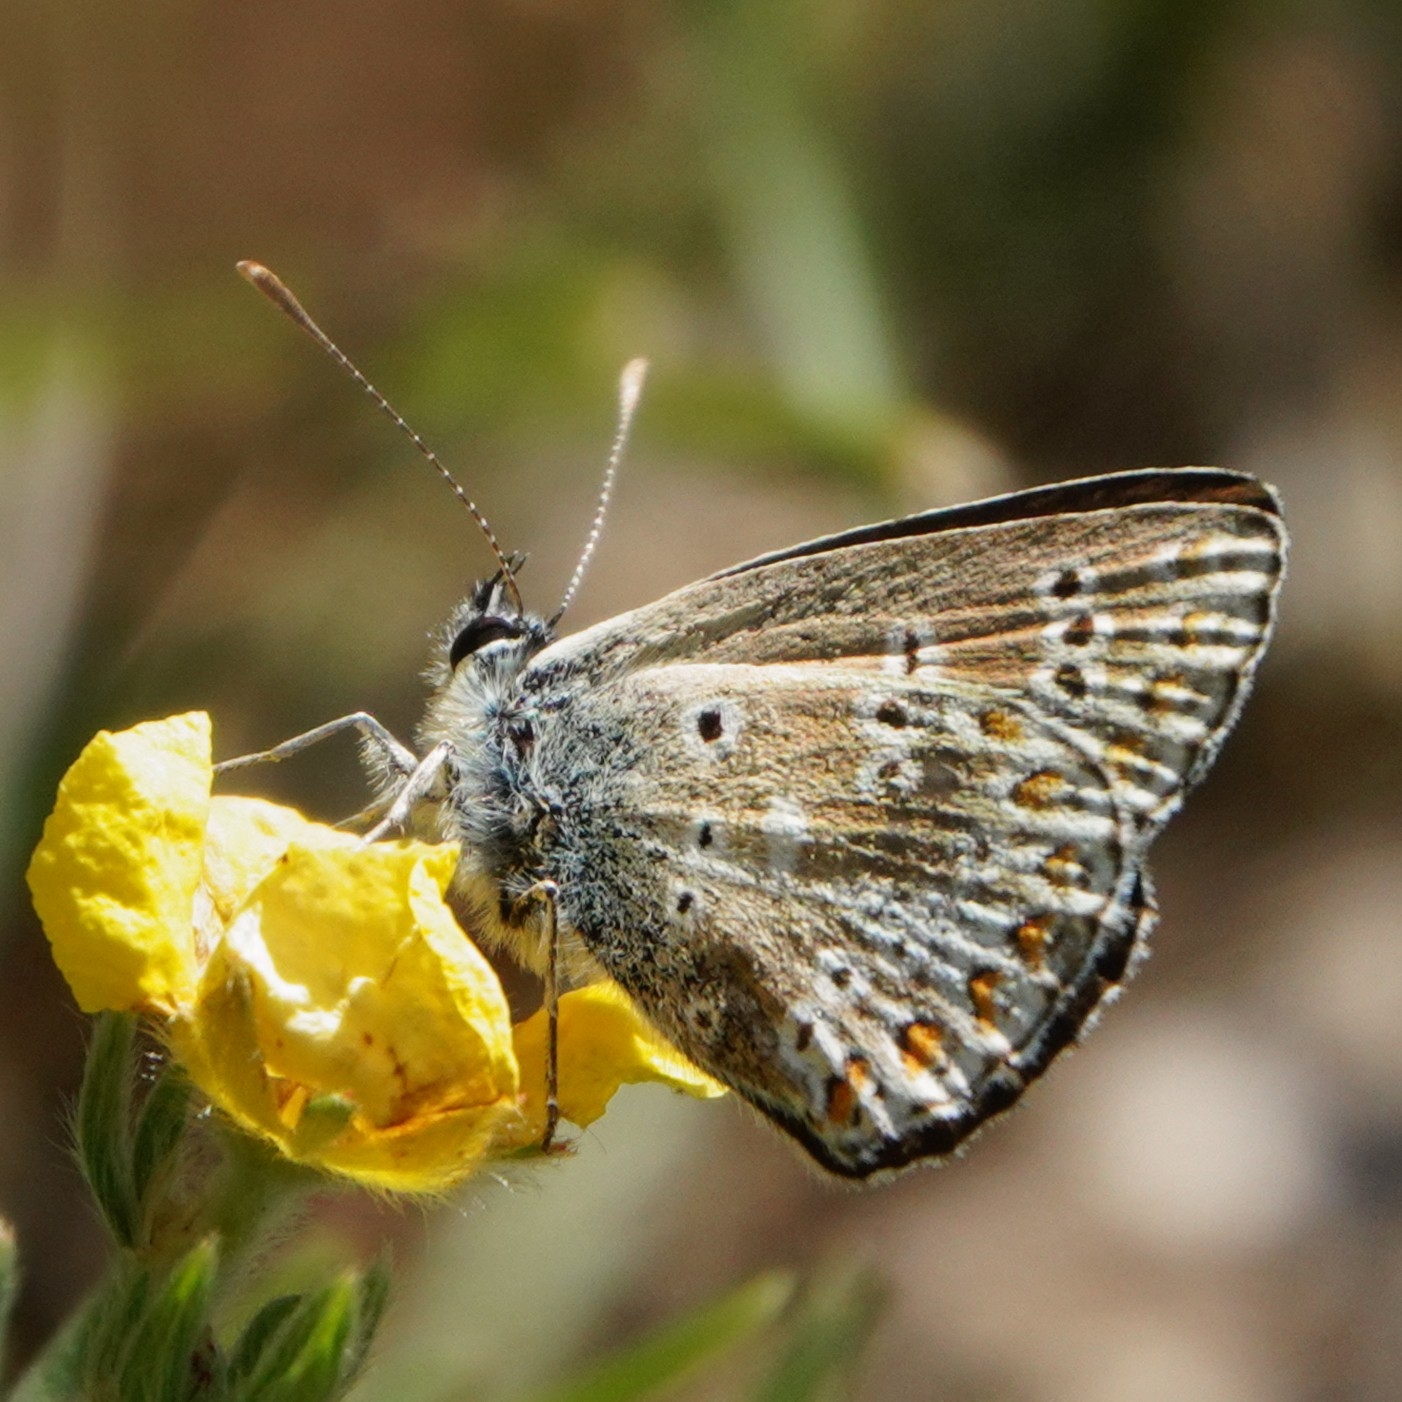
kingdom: Animalia
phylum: Arthropoda
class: Insecta
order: Lepidoptera
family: Lycaenidae
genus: Aricia
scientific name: Aricia artaxerxes
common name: Northern brown argus
